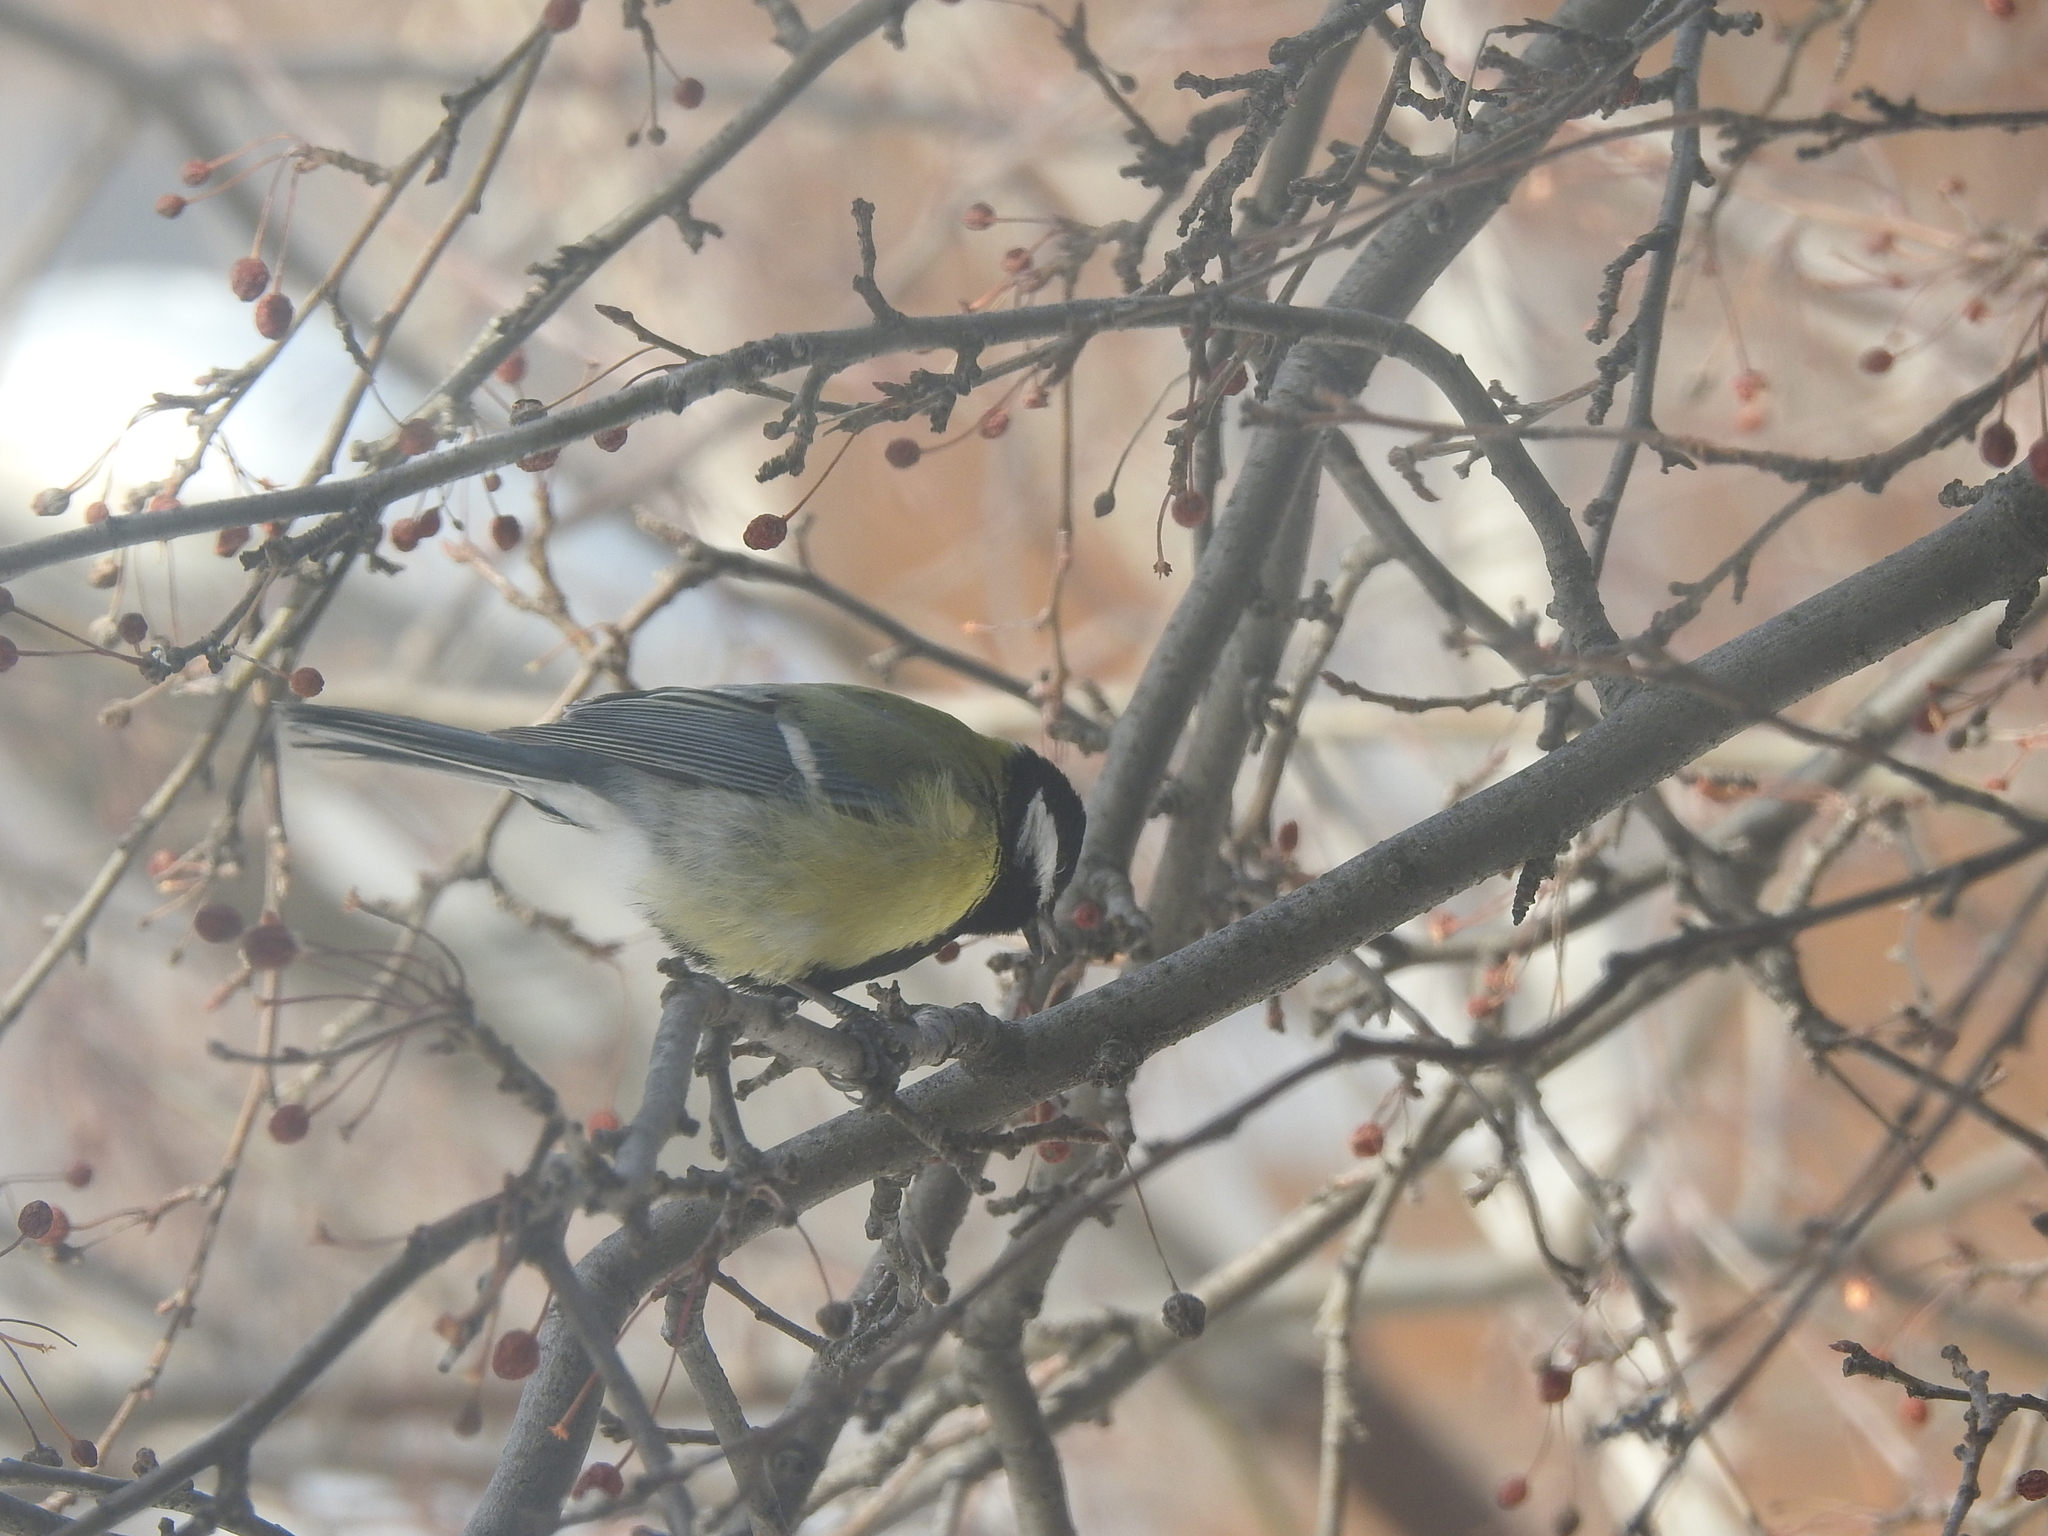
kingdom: Animalia
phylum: Chordata
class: Aves
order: Passeriformes
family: Paridae
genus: Parus
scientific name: Parus major
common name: Great tit
